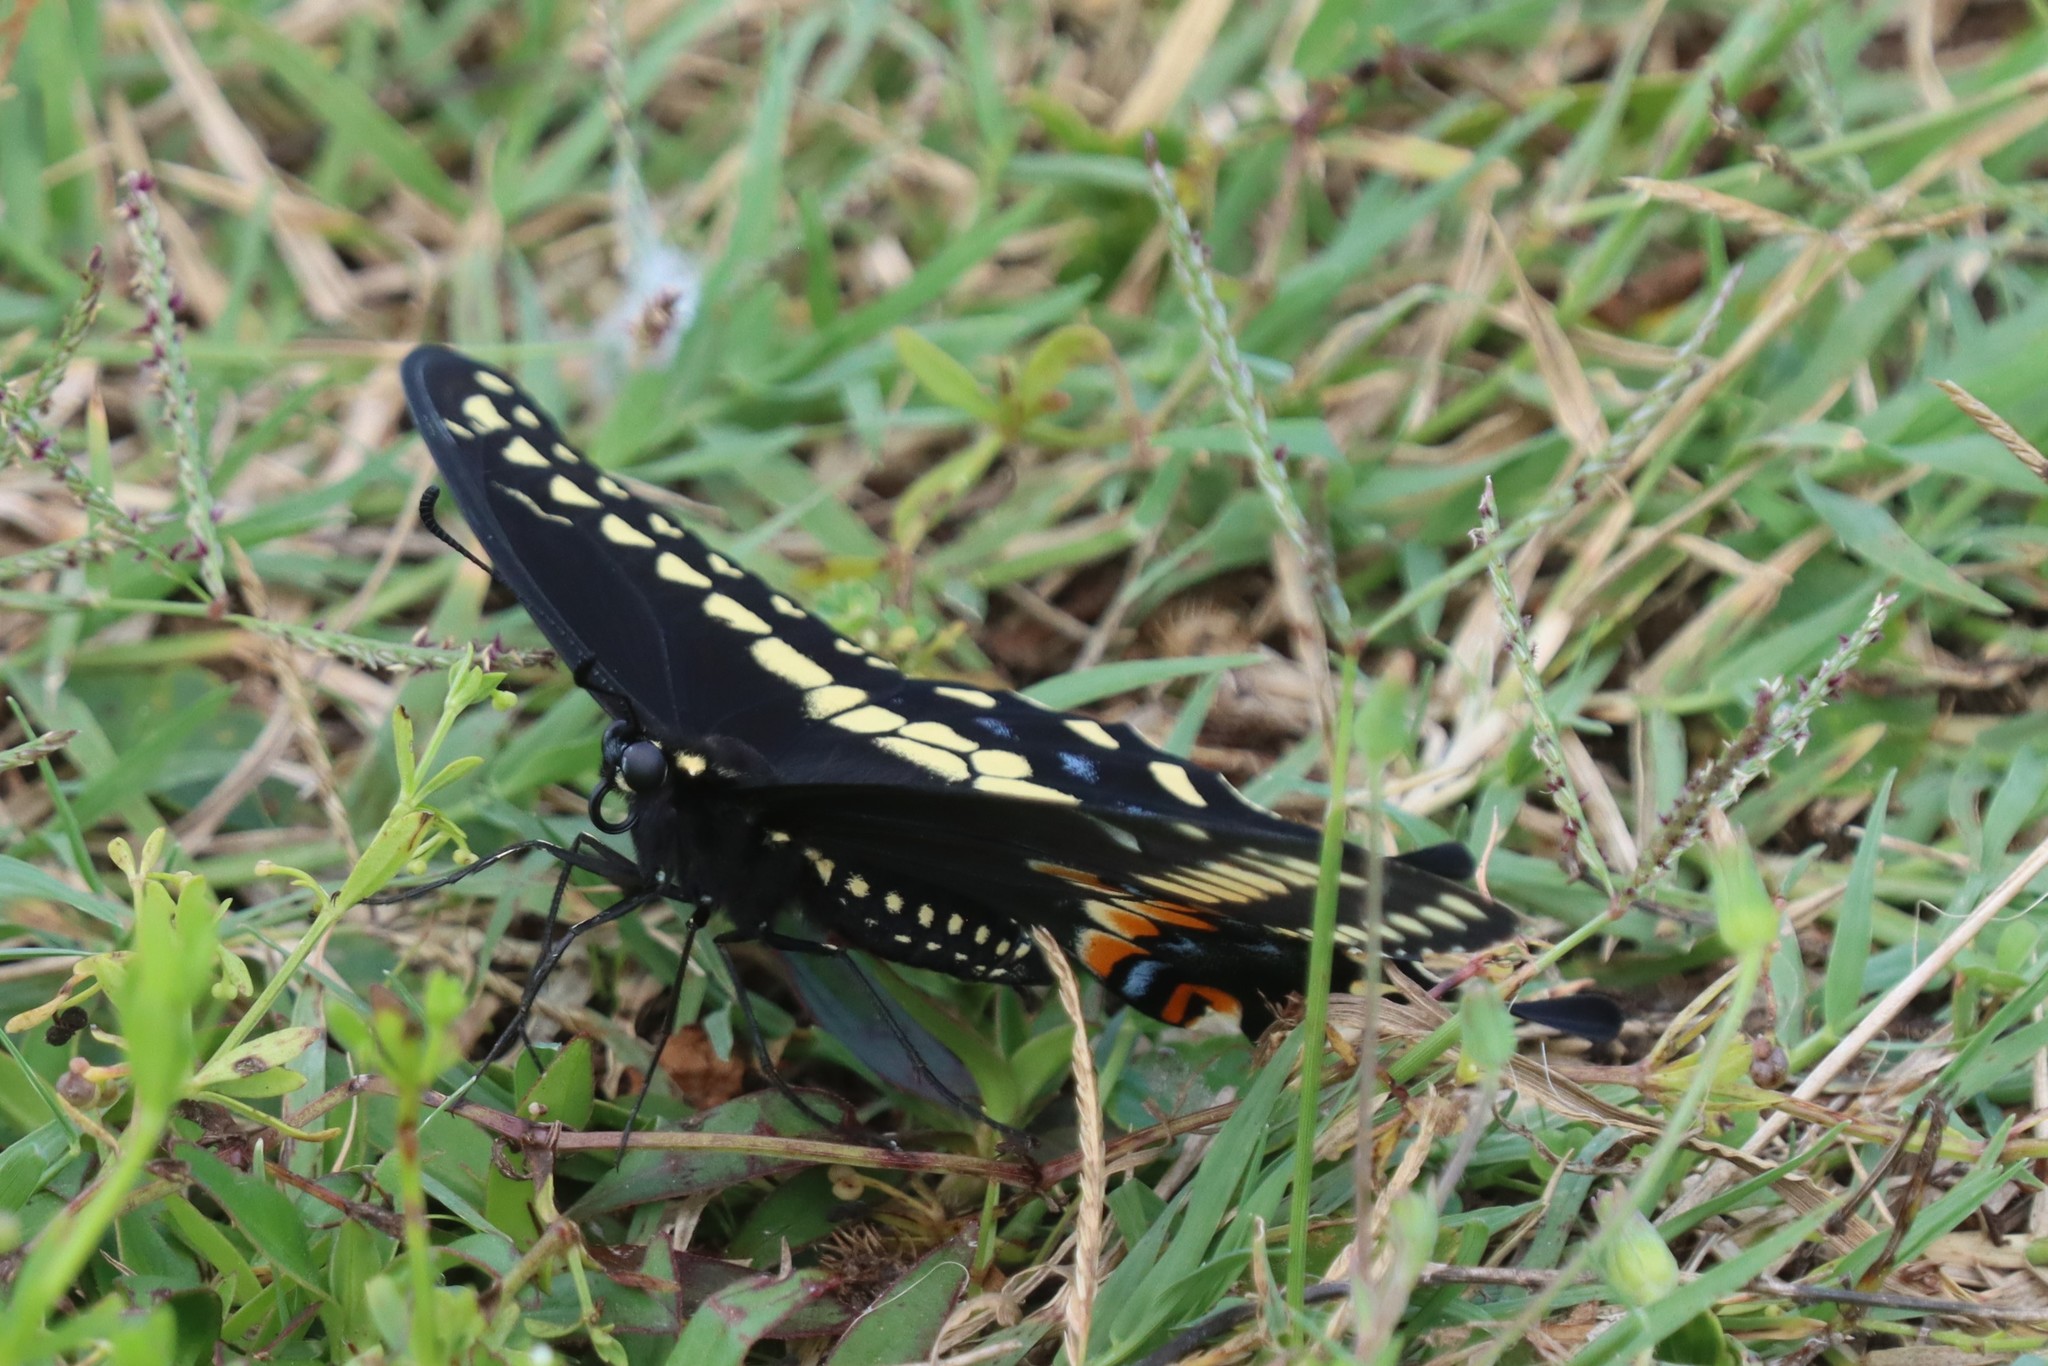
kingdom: Animalia
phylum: Arthropoda
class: Insecta
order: Lepidoptera
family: Papilionidae
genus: Papilio
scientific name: Papilio polyxenes
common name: Black swallowtail
